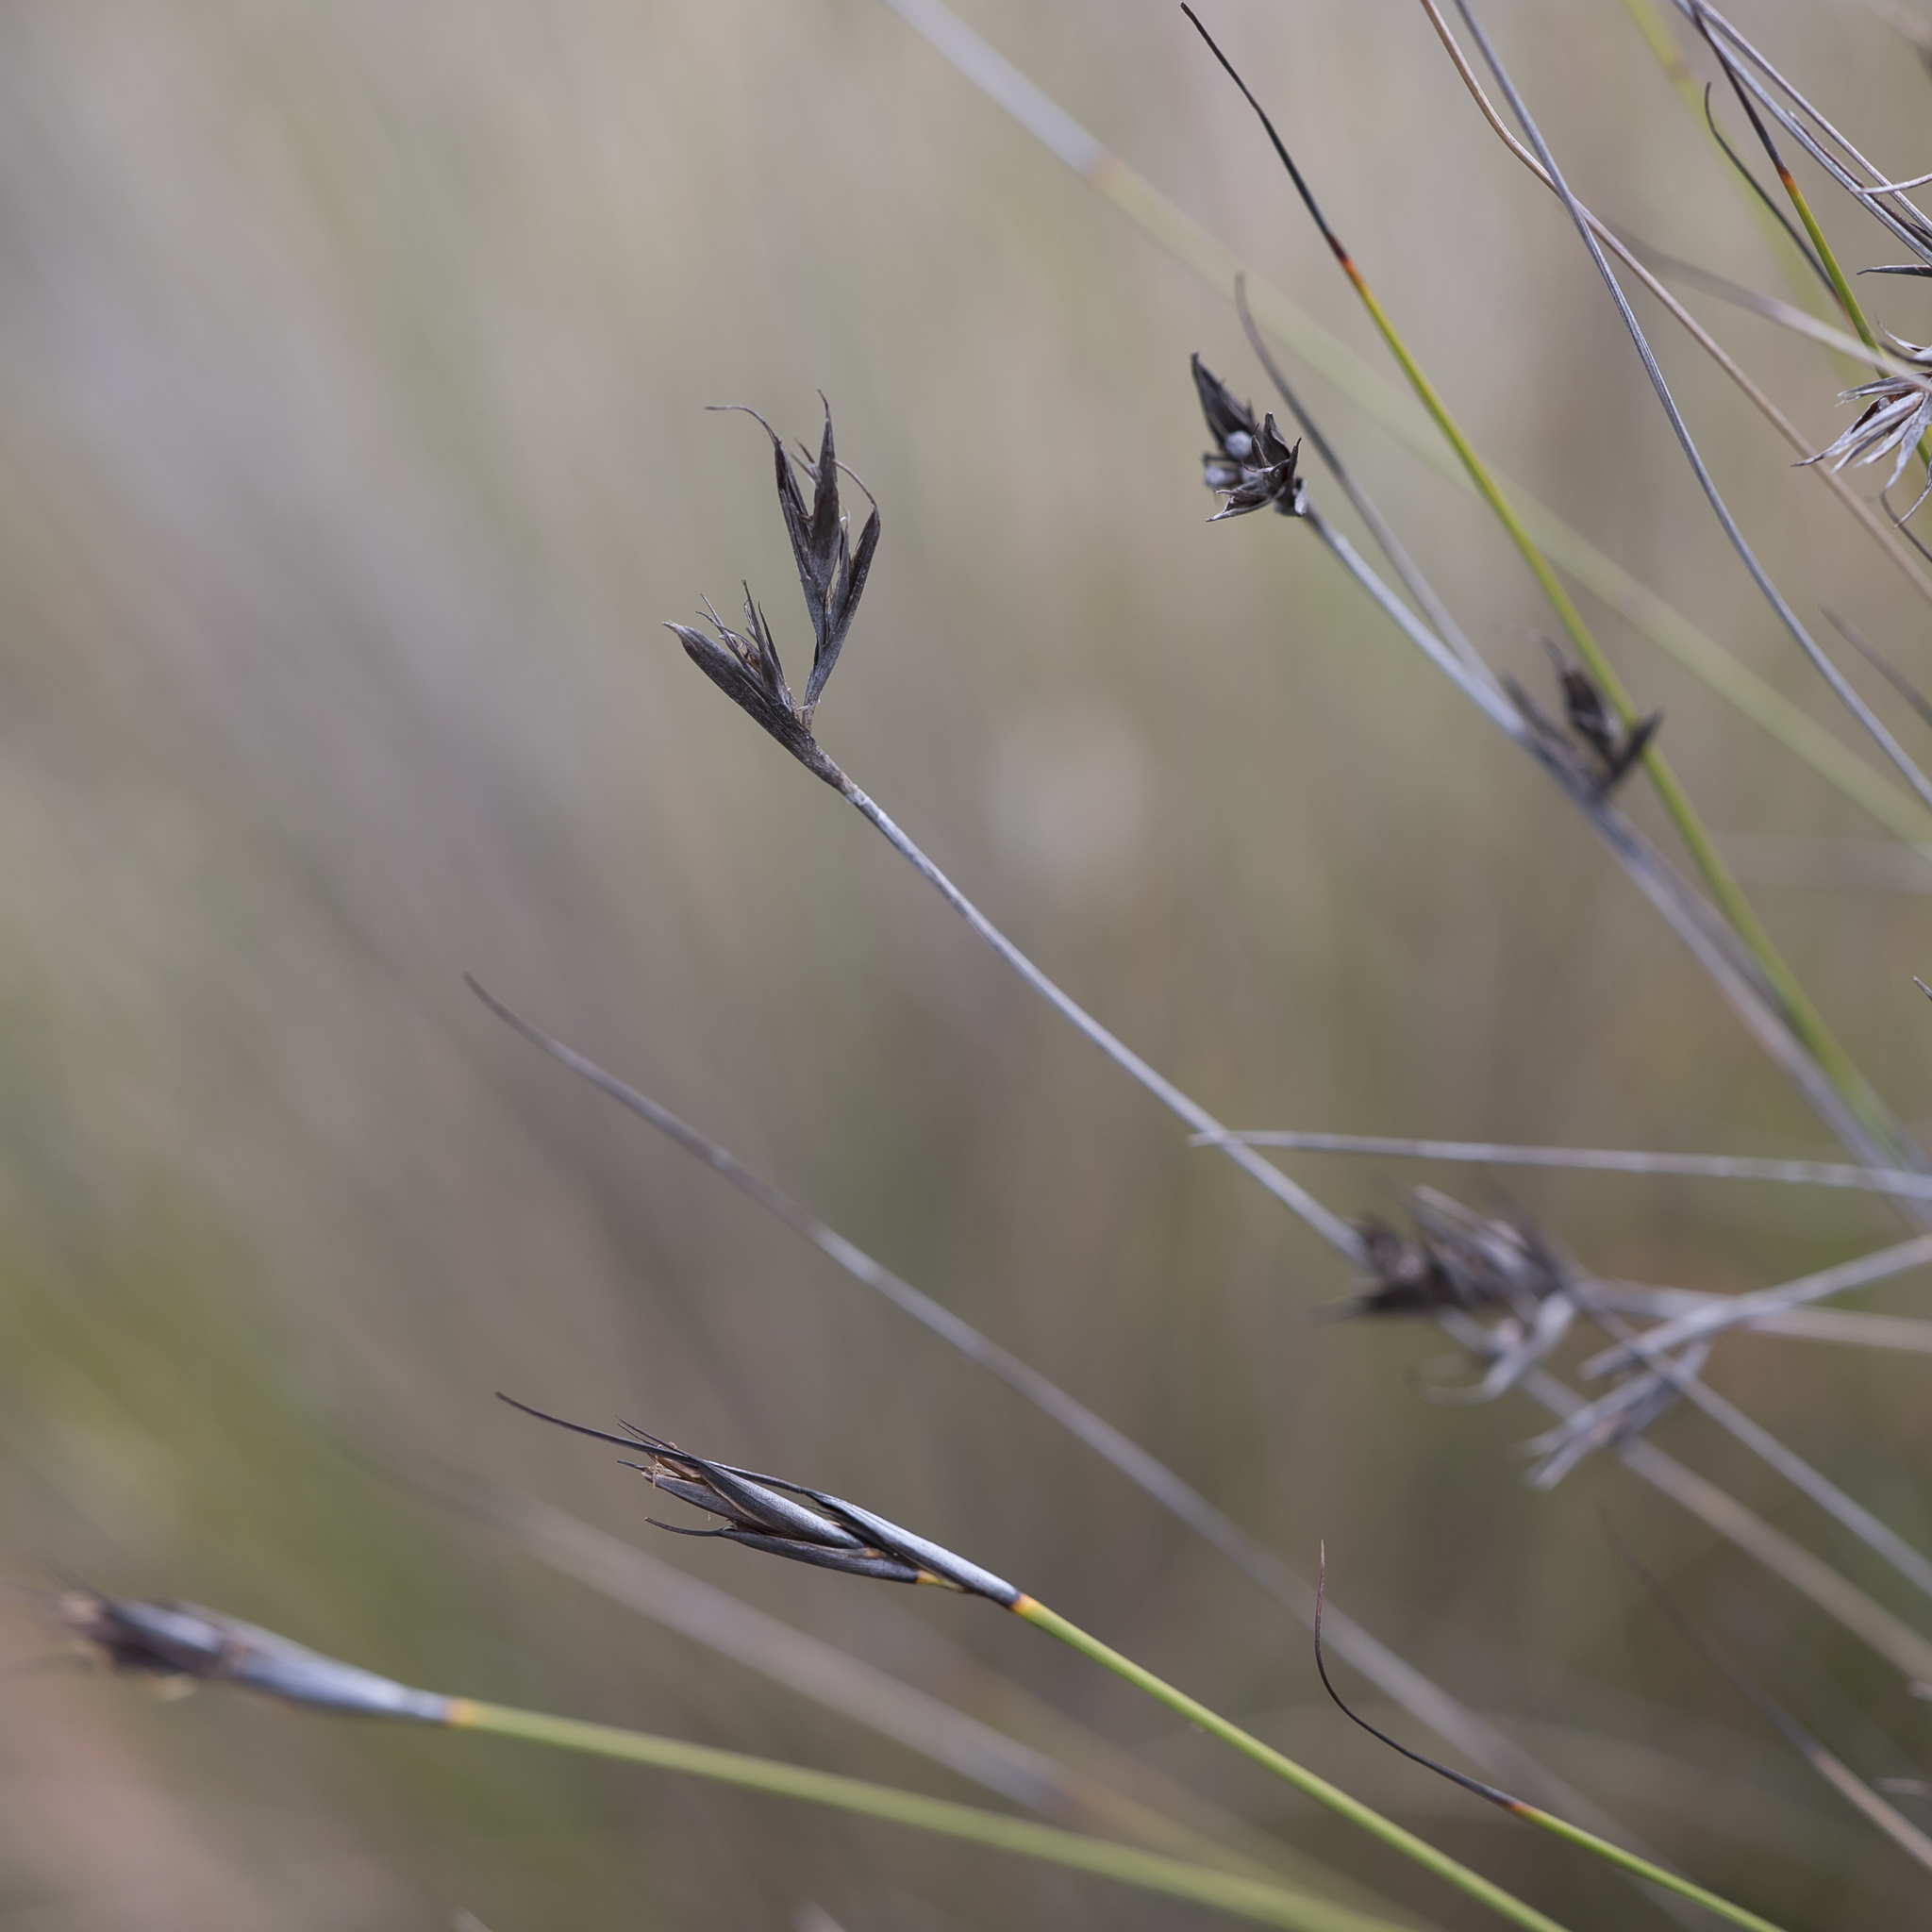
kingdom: Plantae
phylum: Tracheophyta
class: Liliopsida
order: Poales
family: Cyperaceae
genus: Lepidosperma
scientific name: Lepidosperma carphoides
